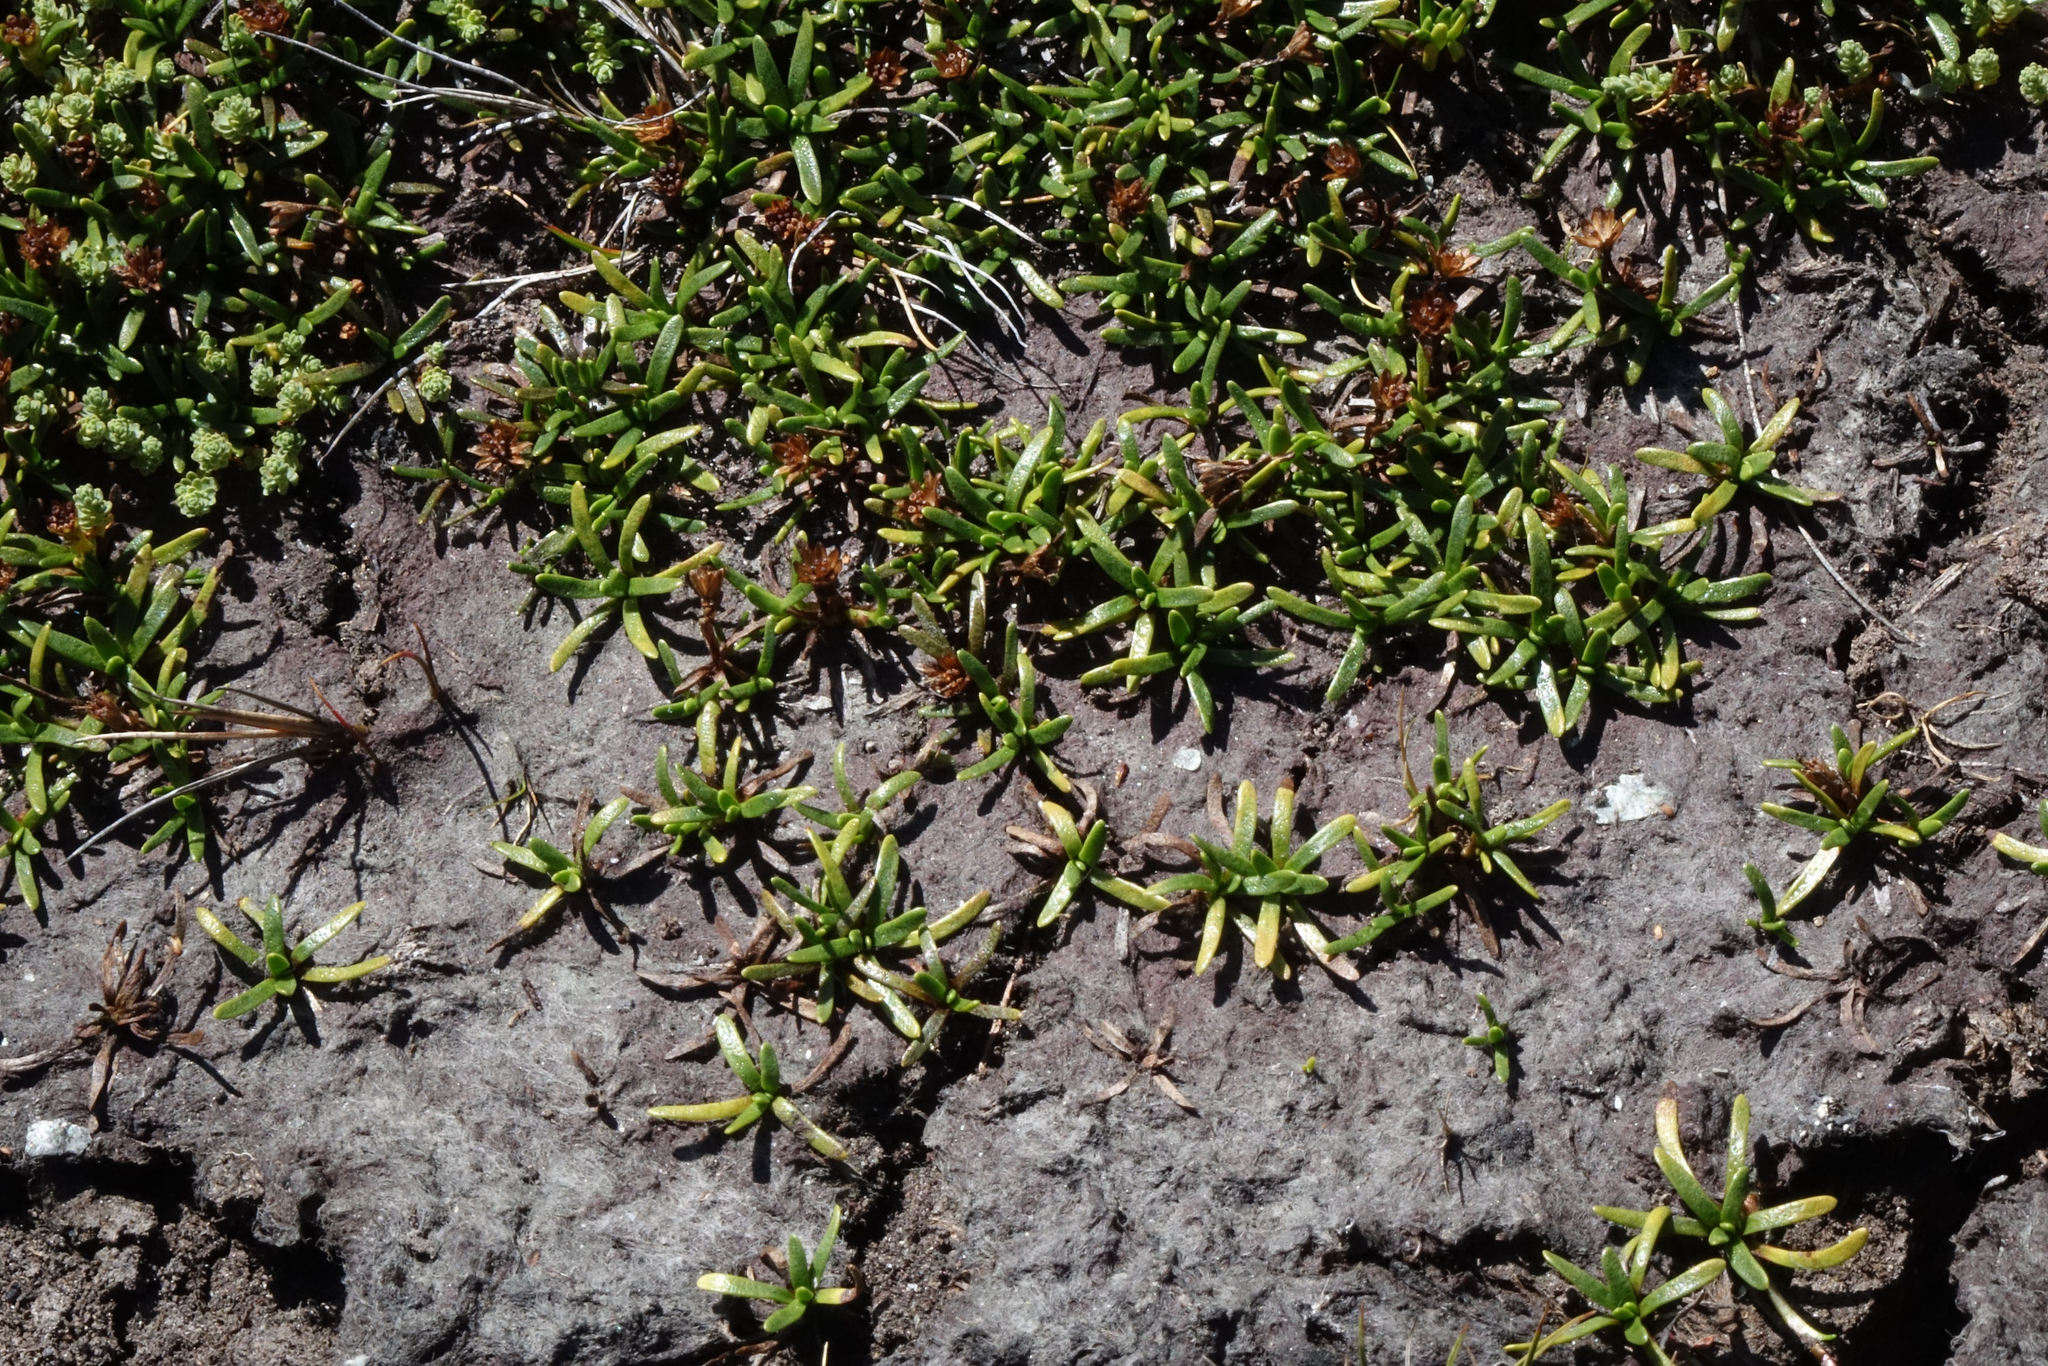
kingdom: Plantae
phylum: Tracheophyta
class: Magnoliopsida
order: Asterales
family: Asteraceae
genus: Abrotanella
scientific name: Abrotanella caespitosa
